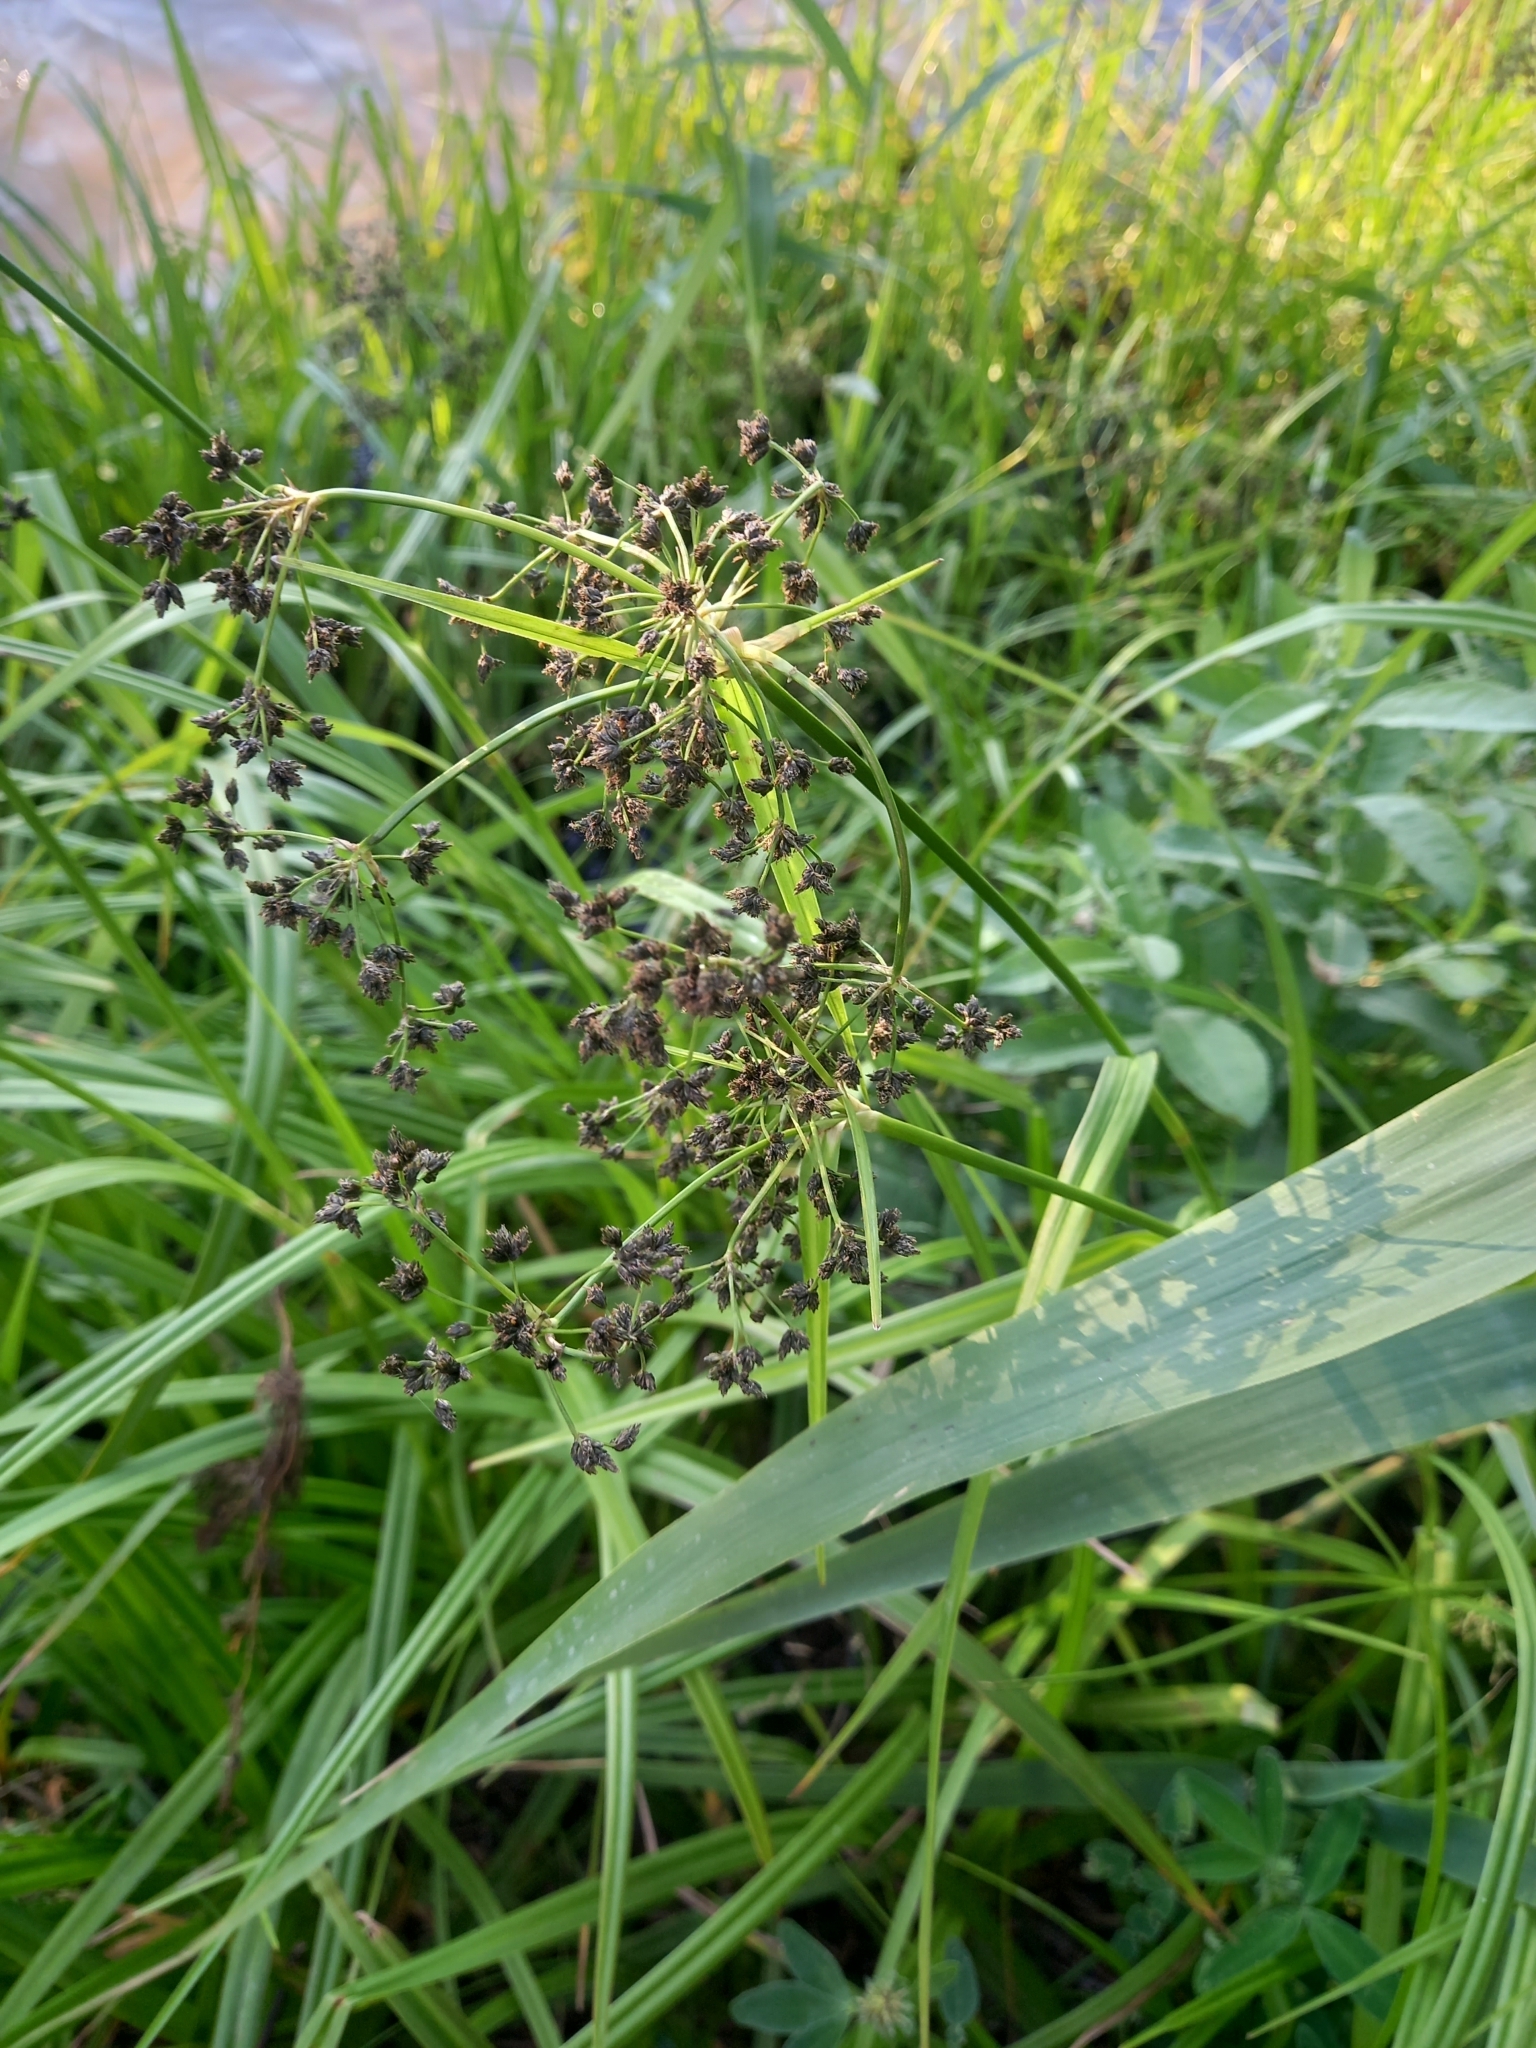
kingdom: Plantae
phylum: Tracheophyta
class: Liliopsida
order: Poales
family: Cyperaceae
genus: Scirpus
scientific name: Scirpus sylvaticus
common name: Wood club-rush
